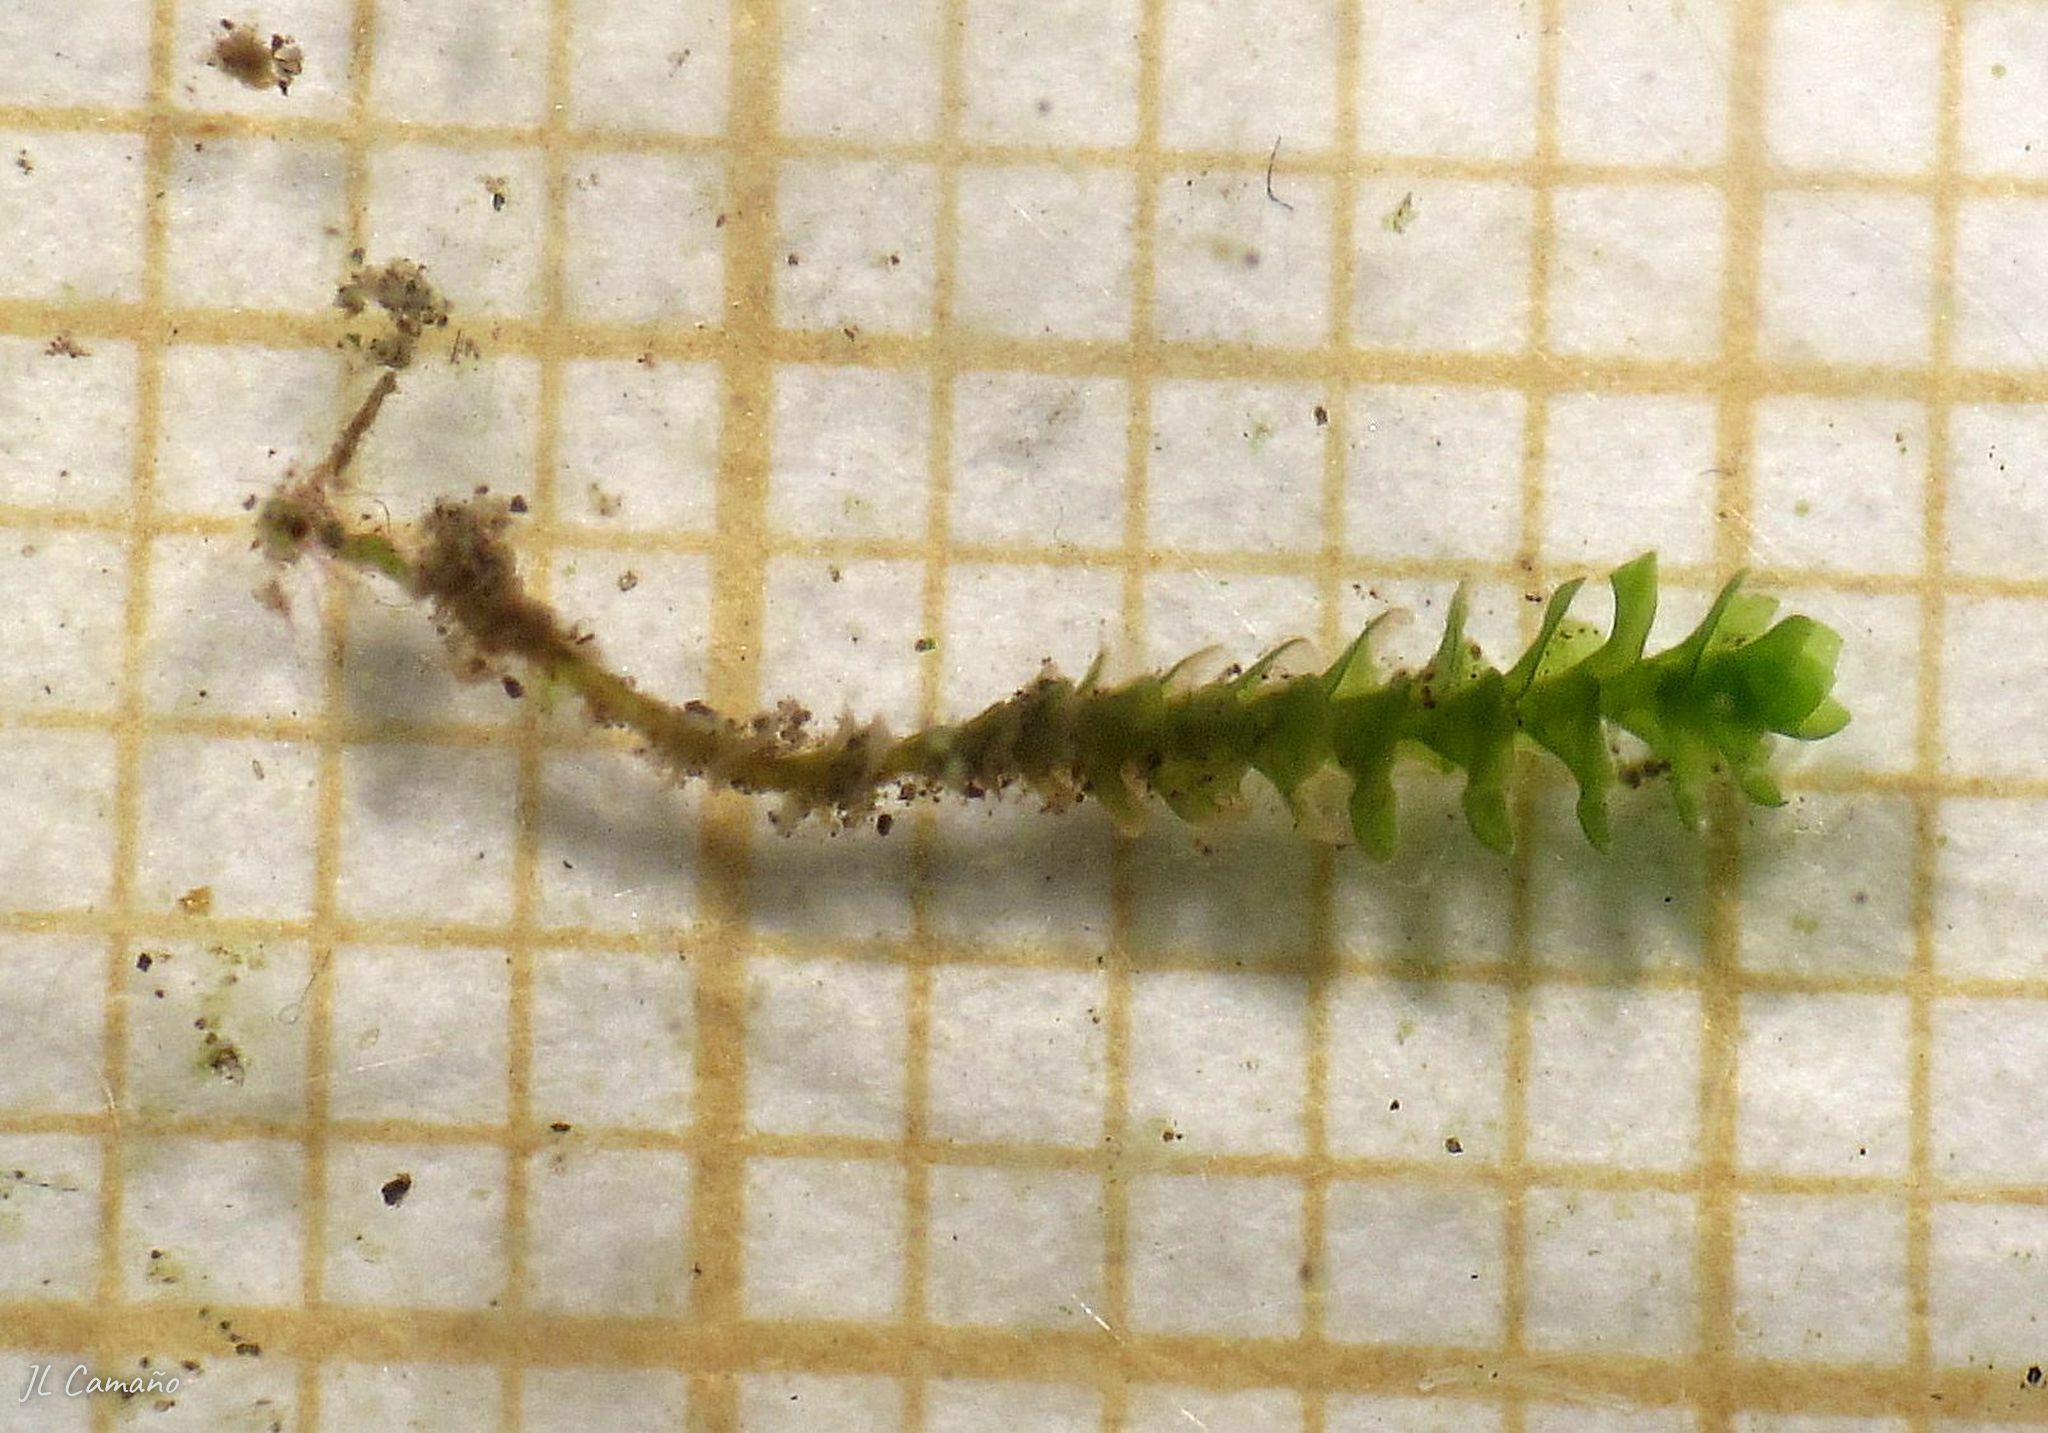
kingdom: Plantae
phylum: Marchantiophyta
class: Jungermanniopsida
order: Jungermanniales
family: Scapaniaceae
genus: Scapania
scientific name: Scapania compacta
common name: Thick-set earwort
